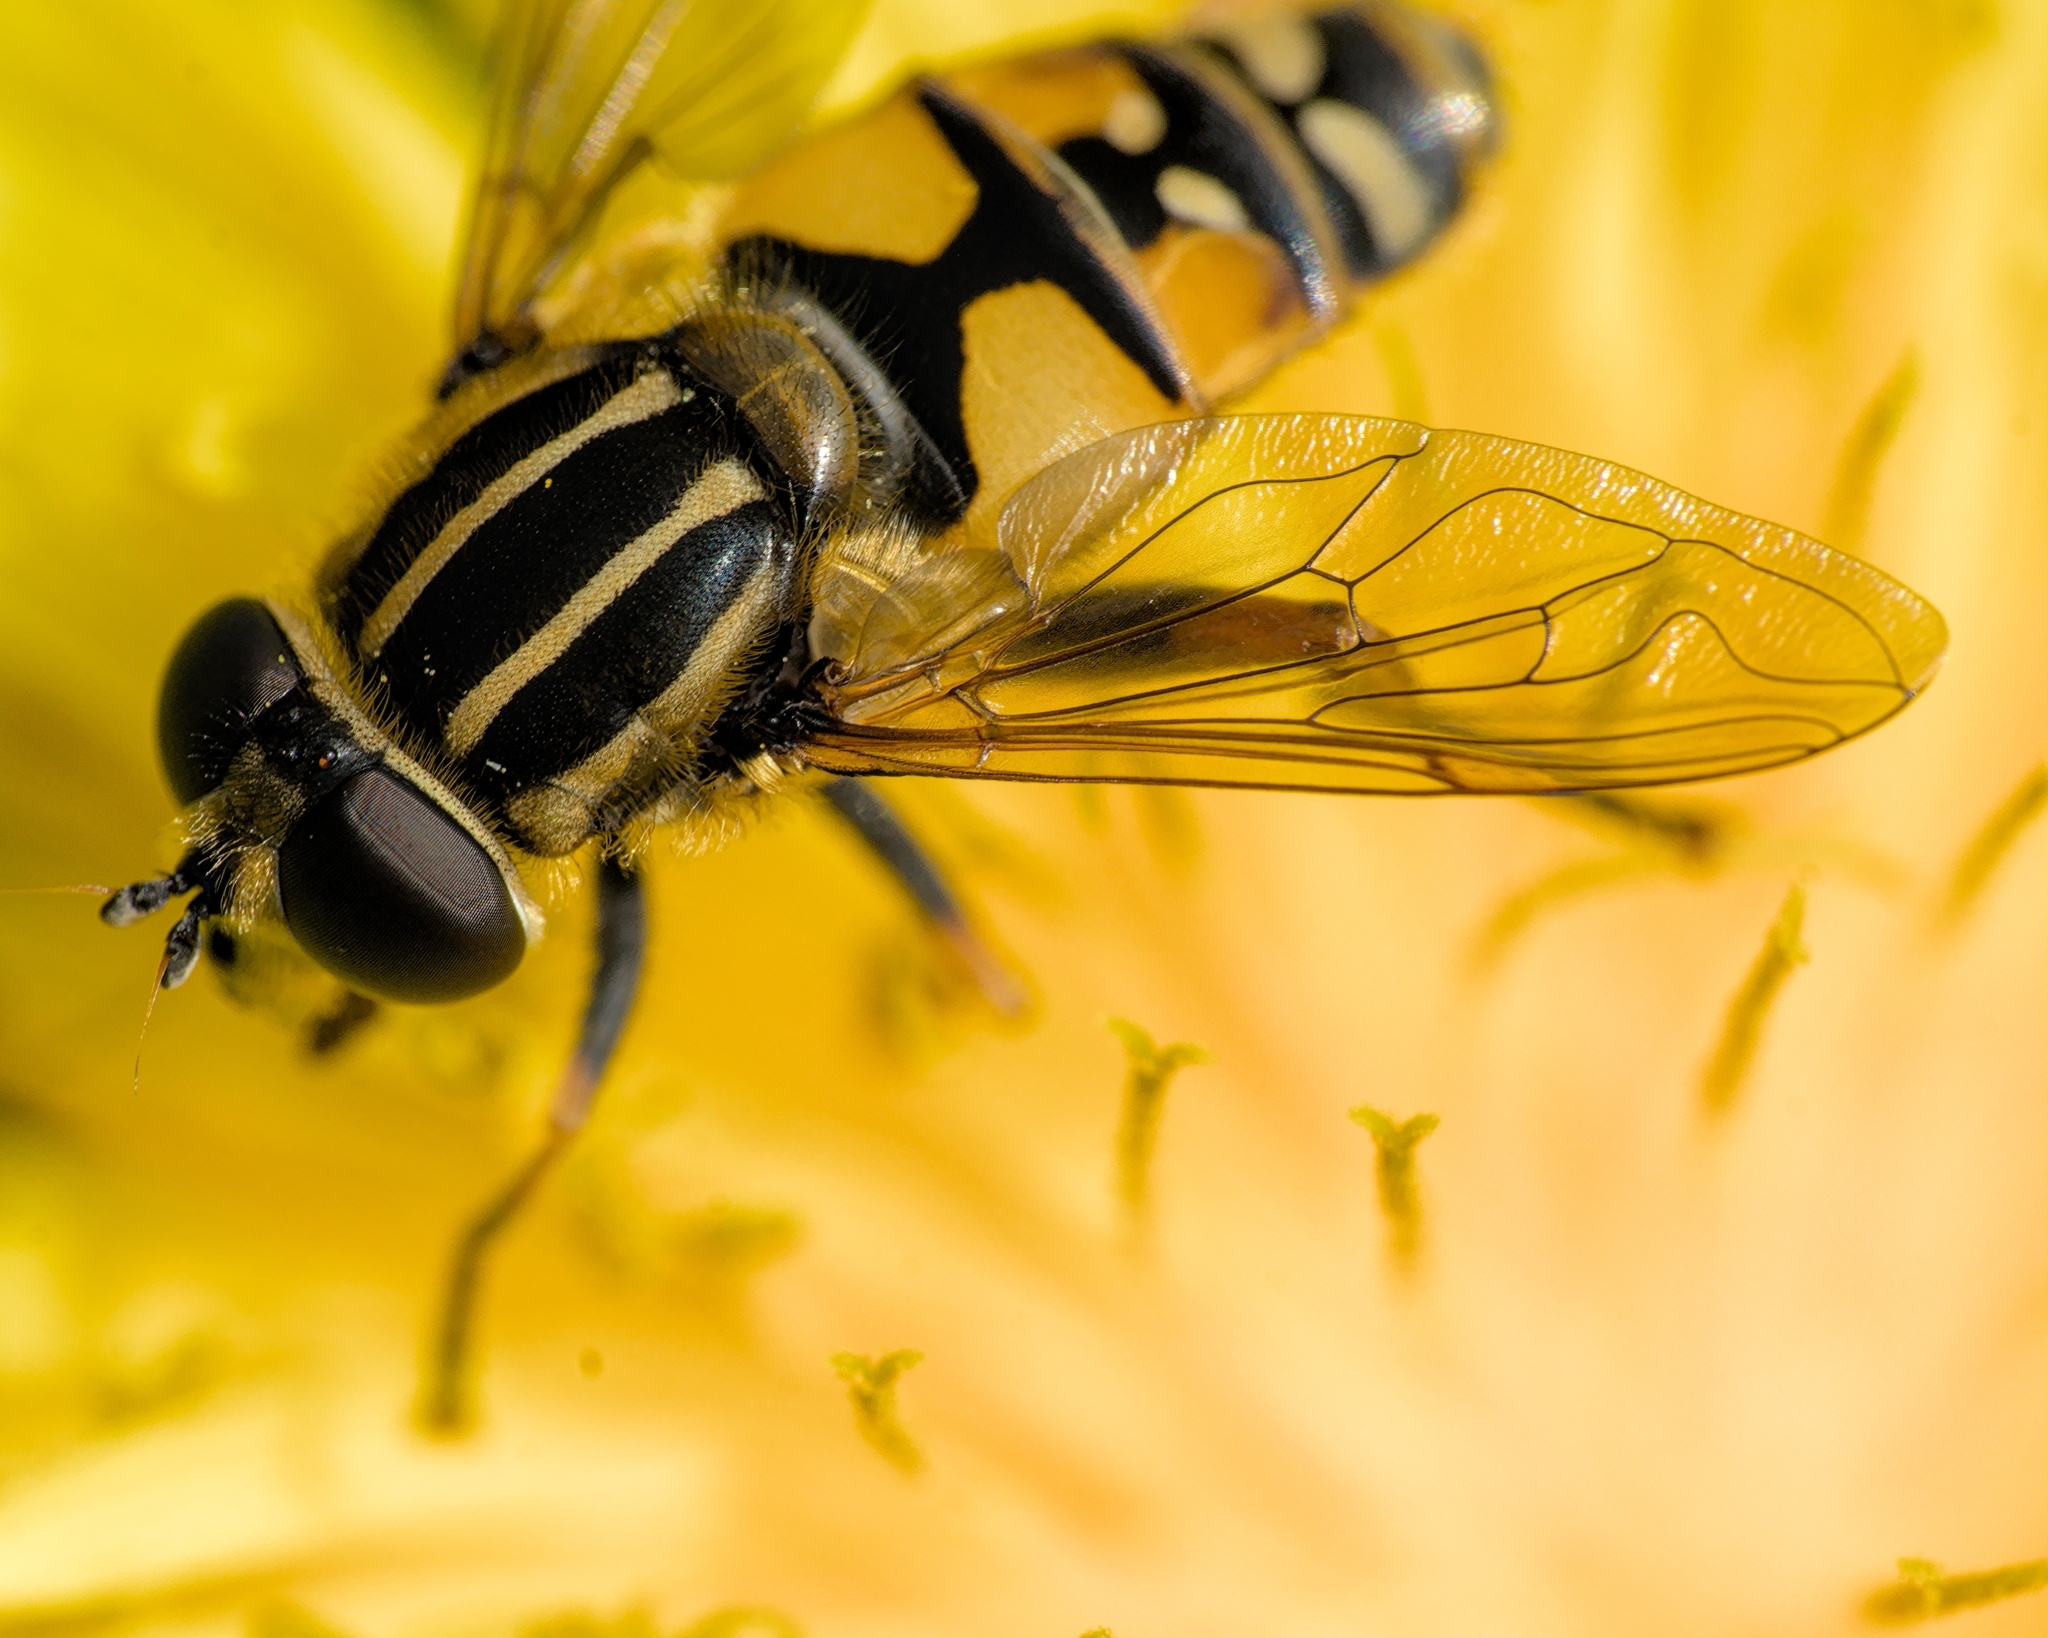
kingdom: Animalia
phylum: Arthropoda
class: Insecta
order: Diptera
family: Syrphidae
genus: Helophilus
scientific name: Helophilus pendulus
